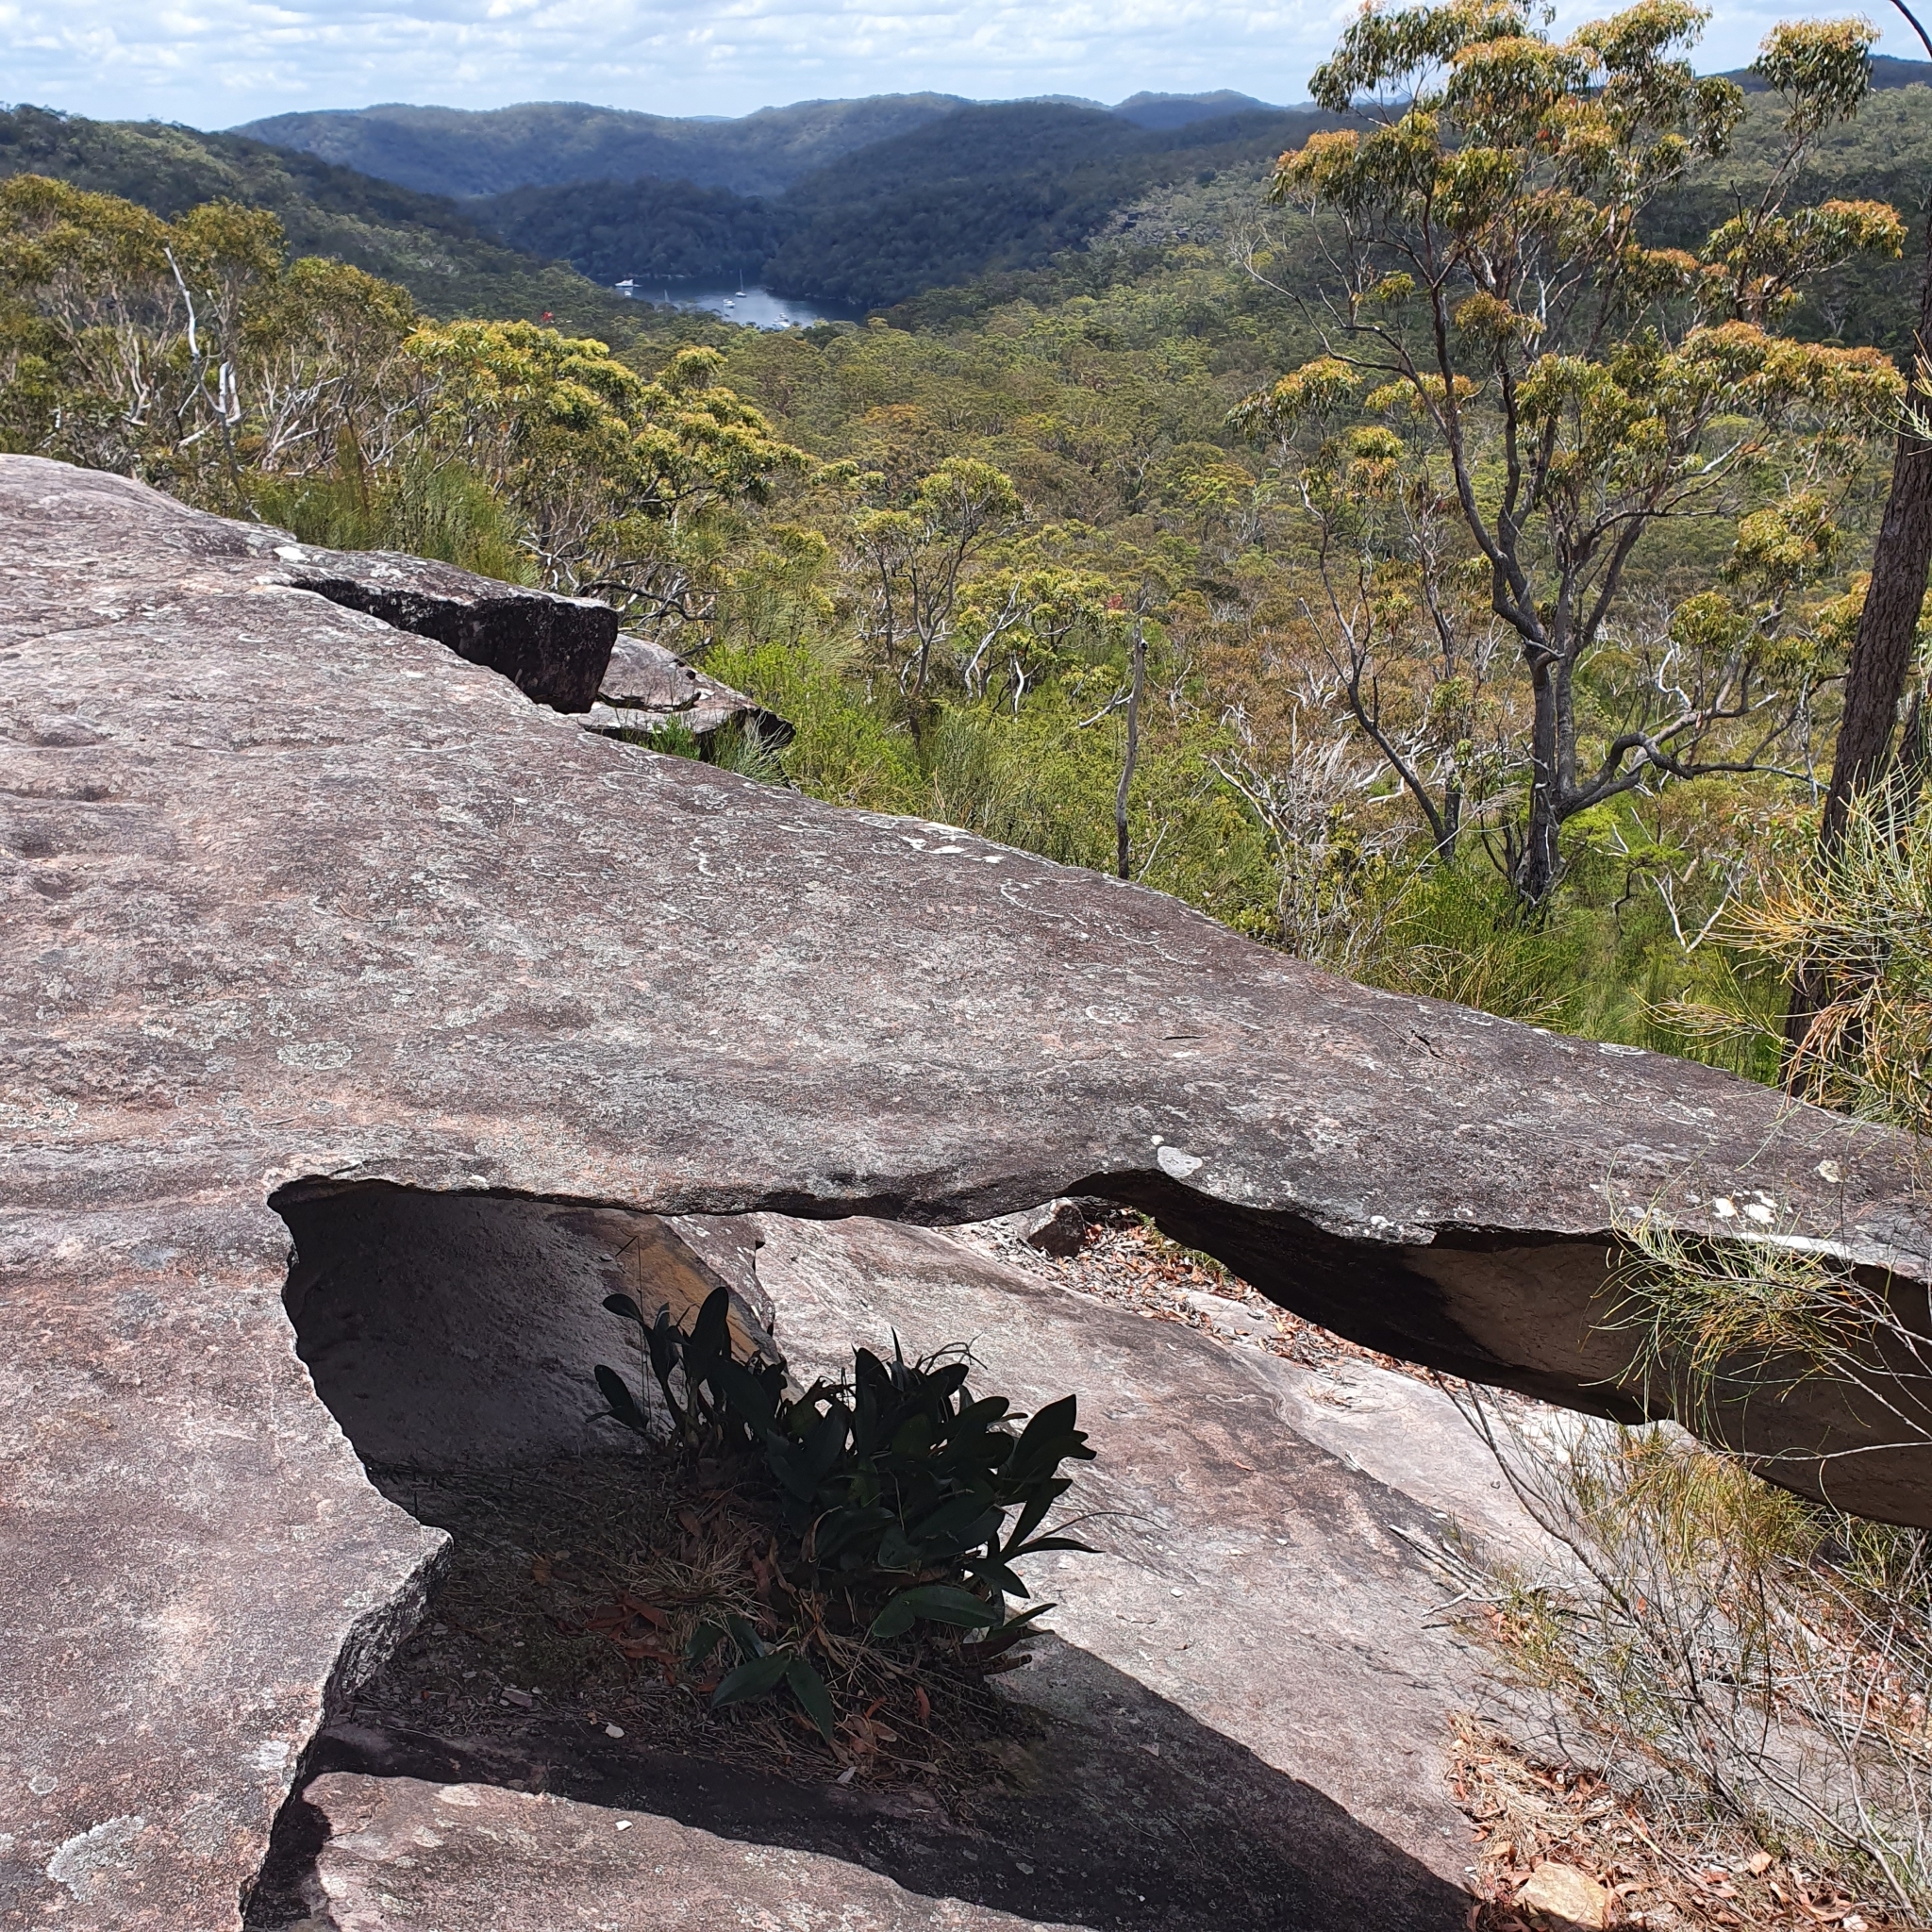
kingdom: Plantae
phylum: Tracheophyta
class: Liliopsida
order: Asparagales
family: Orchidaceae
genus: Dendrobium
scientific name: Dendrobium speciosum
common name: Rock-lily
